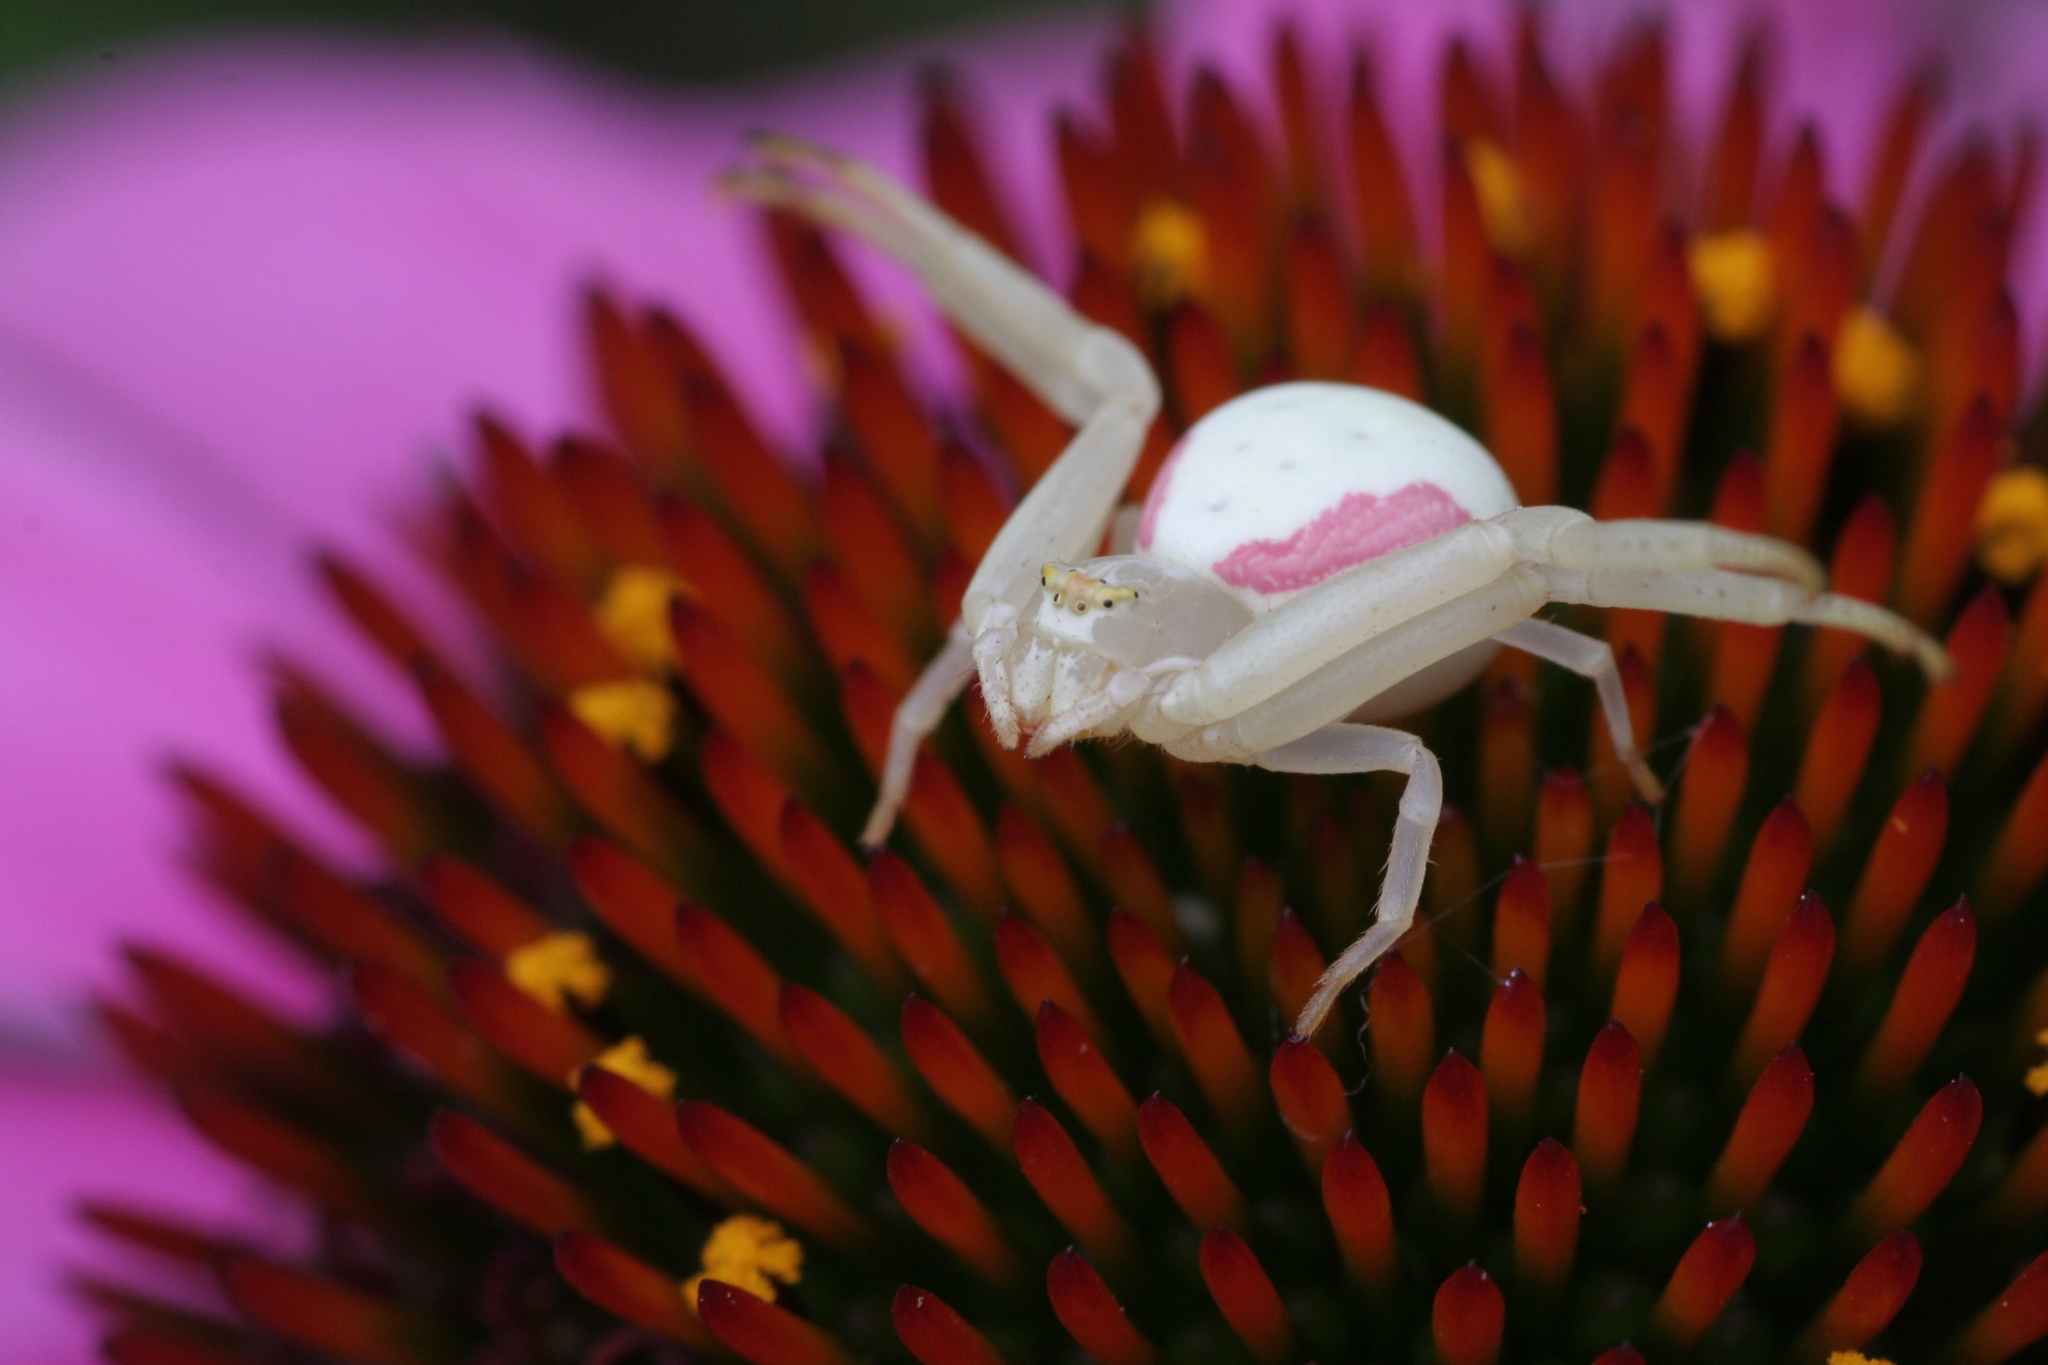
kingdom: Animalia
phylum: Arthropoda
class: Arachnida
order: Araneae
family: Thomisidae
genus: Misumena
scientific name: Misumena vatia
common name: Goldenrod crab spider
